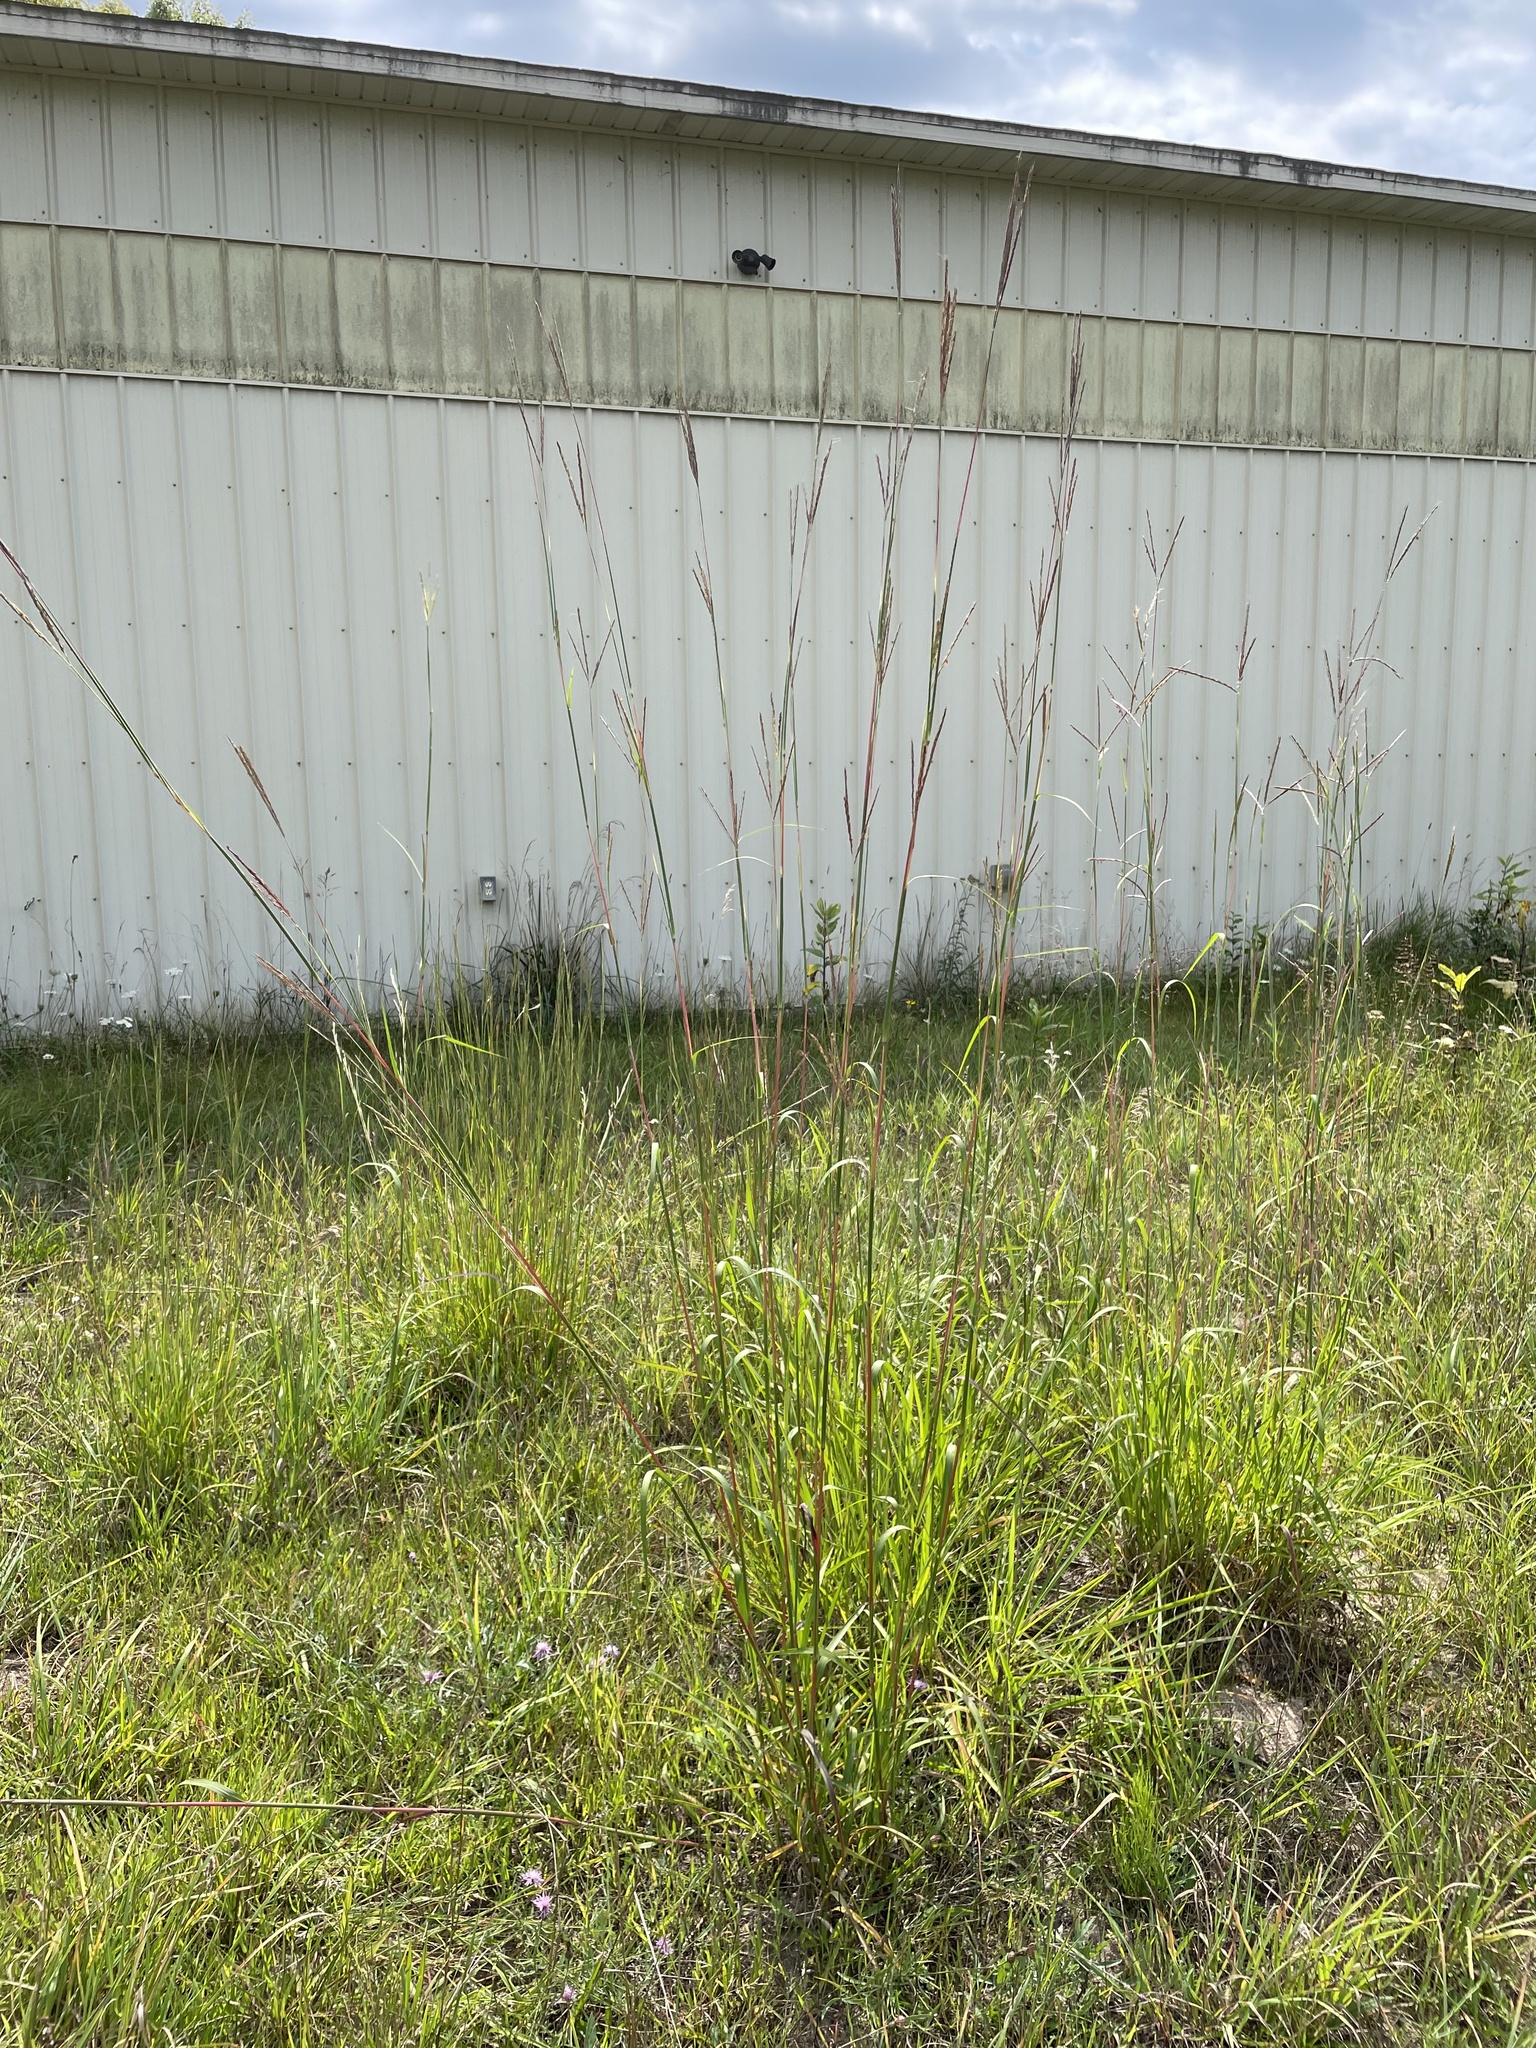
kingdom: Plantae
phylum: Tracheophyta
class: Liliopsida
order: Poales
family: Poaceae
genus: Andropogon
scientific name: Andropogon gerardi
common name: Big bluestem
